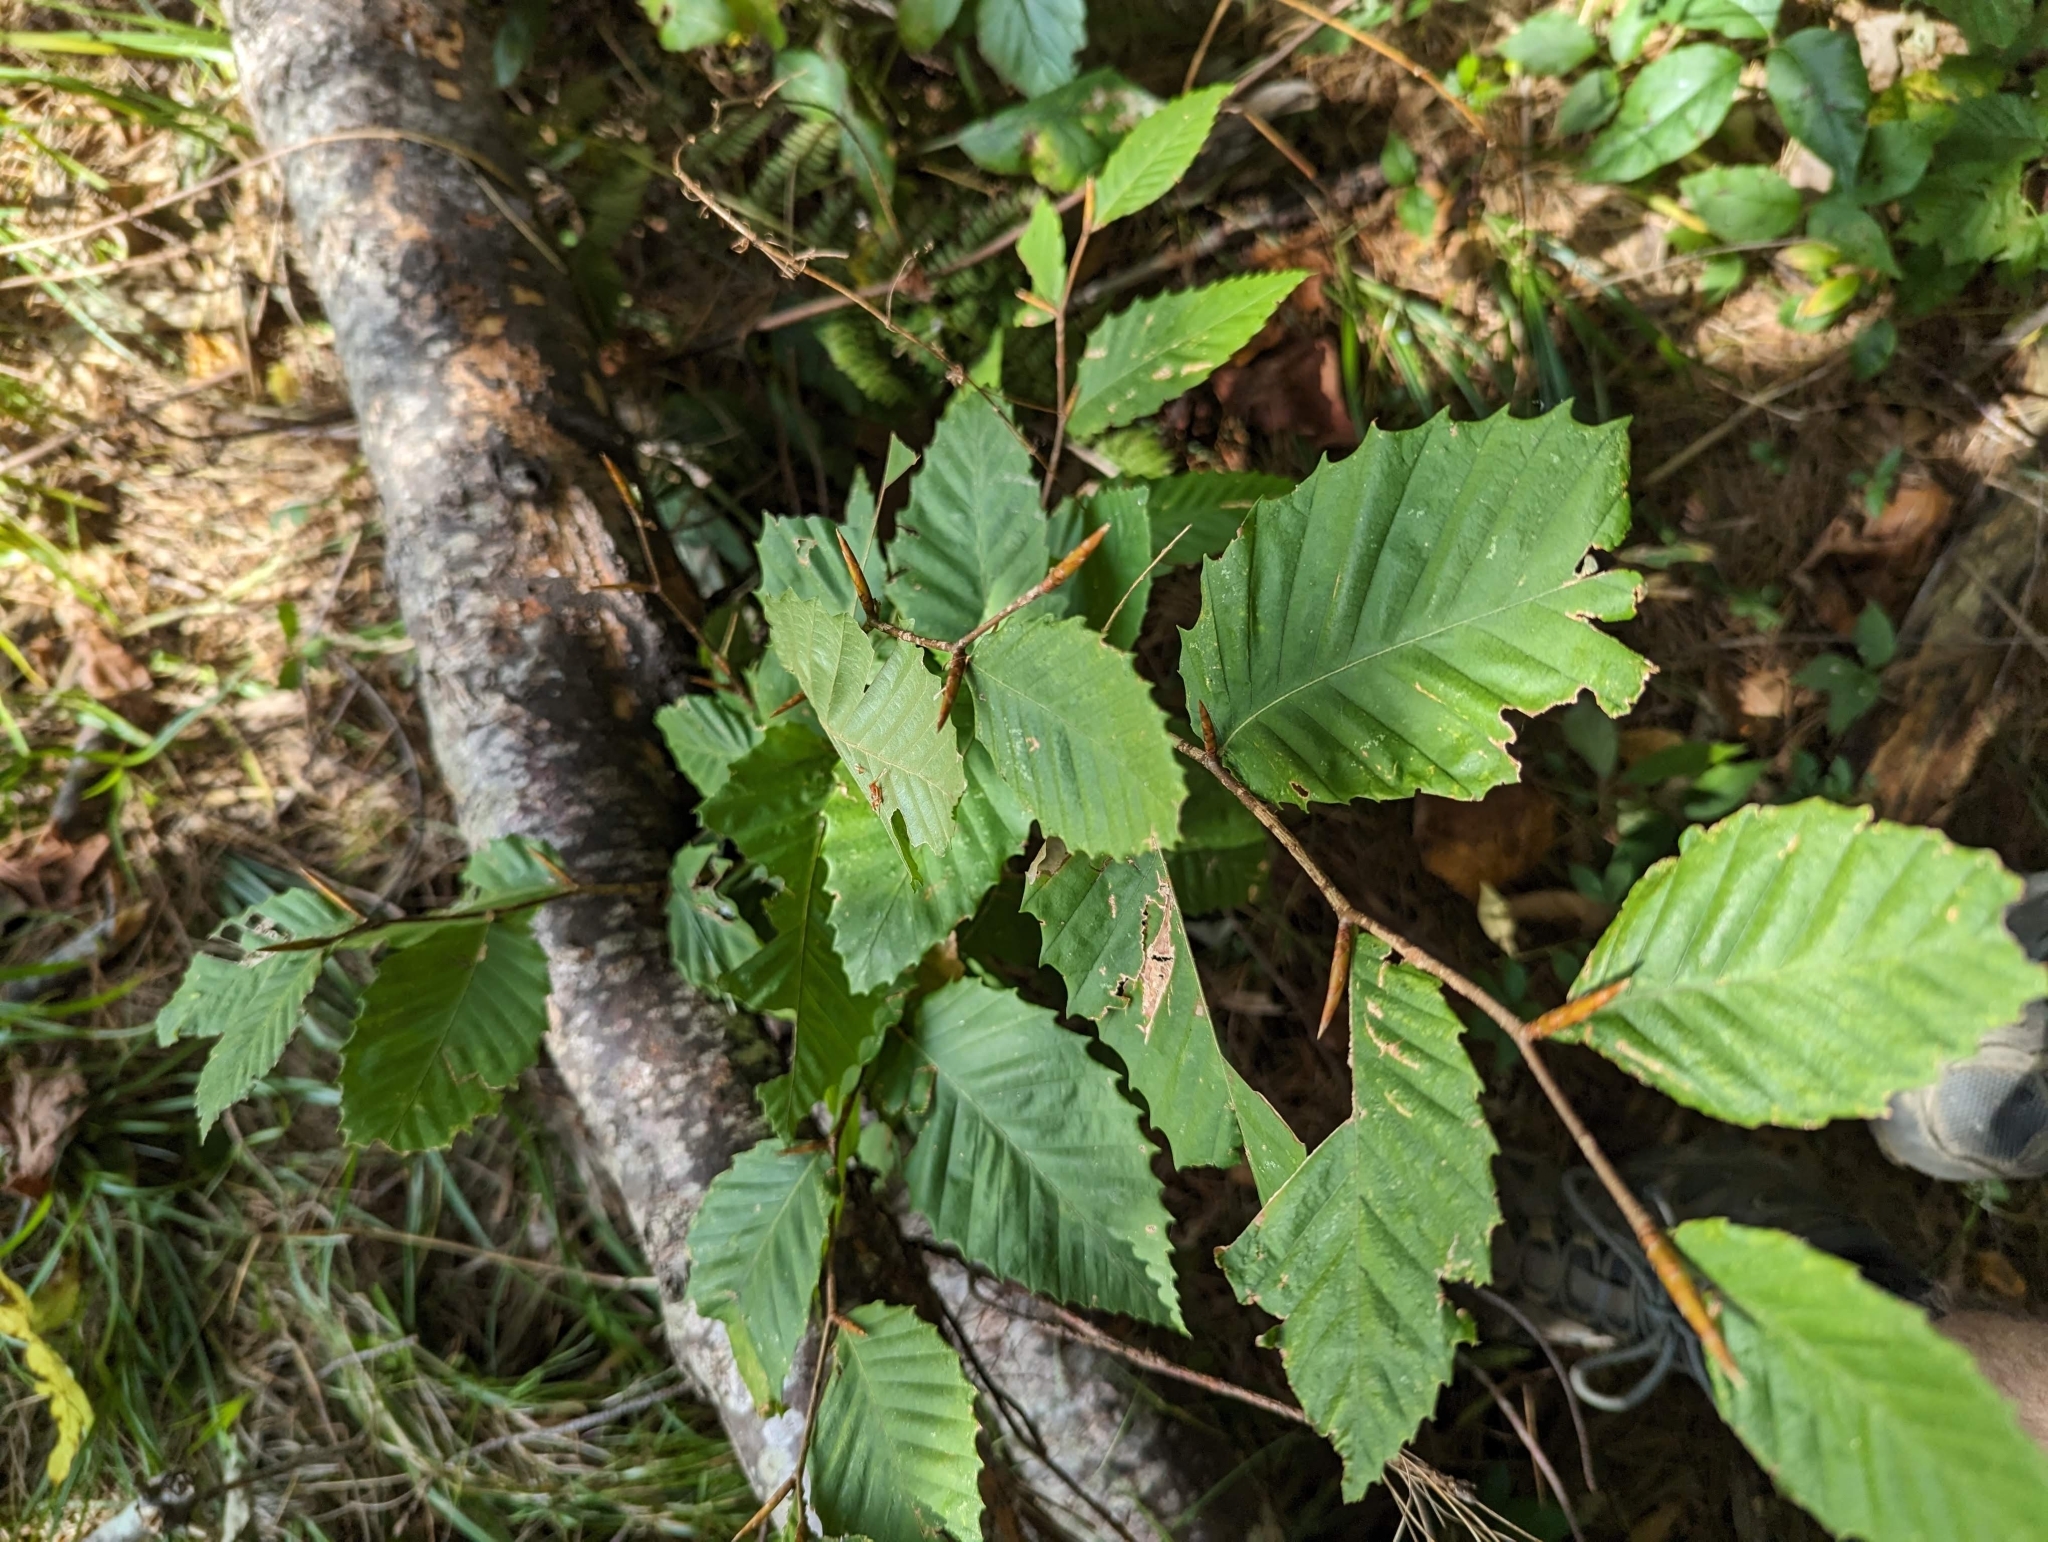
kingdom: Plantae
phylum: Tracheophyta
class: Magnoliopsida
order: Fagales
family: Fagaceae
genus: Fagus
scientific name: Fagus grandifolia
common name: American beech
